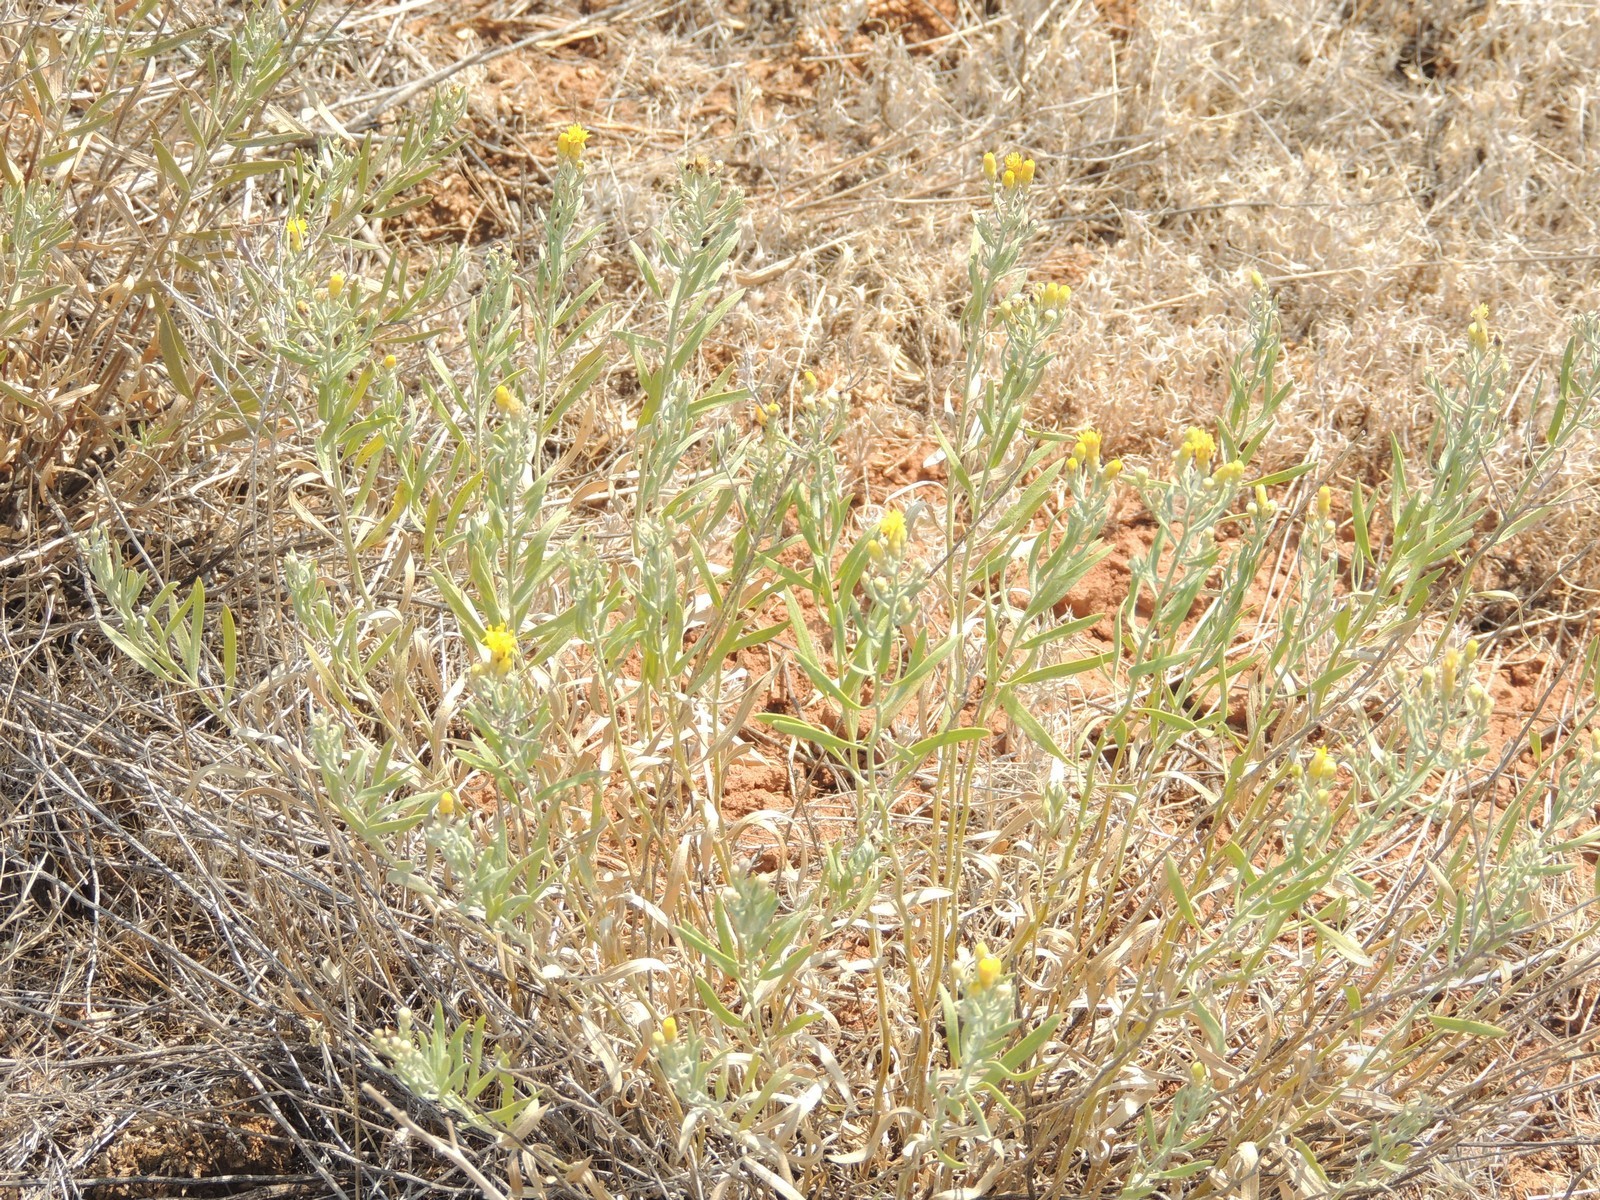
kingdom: Plantae
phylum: Tracheophyta
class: Magnoliopsida
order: Asterales
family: Asteraceae
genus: Galatella
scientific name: Galatella sedifolia
